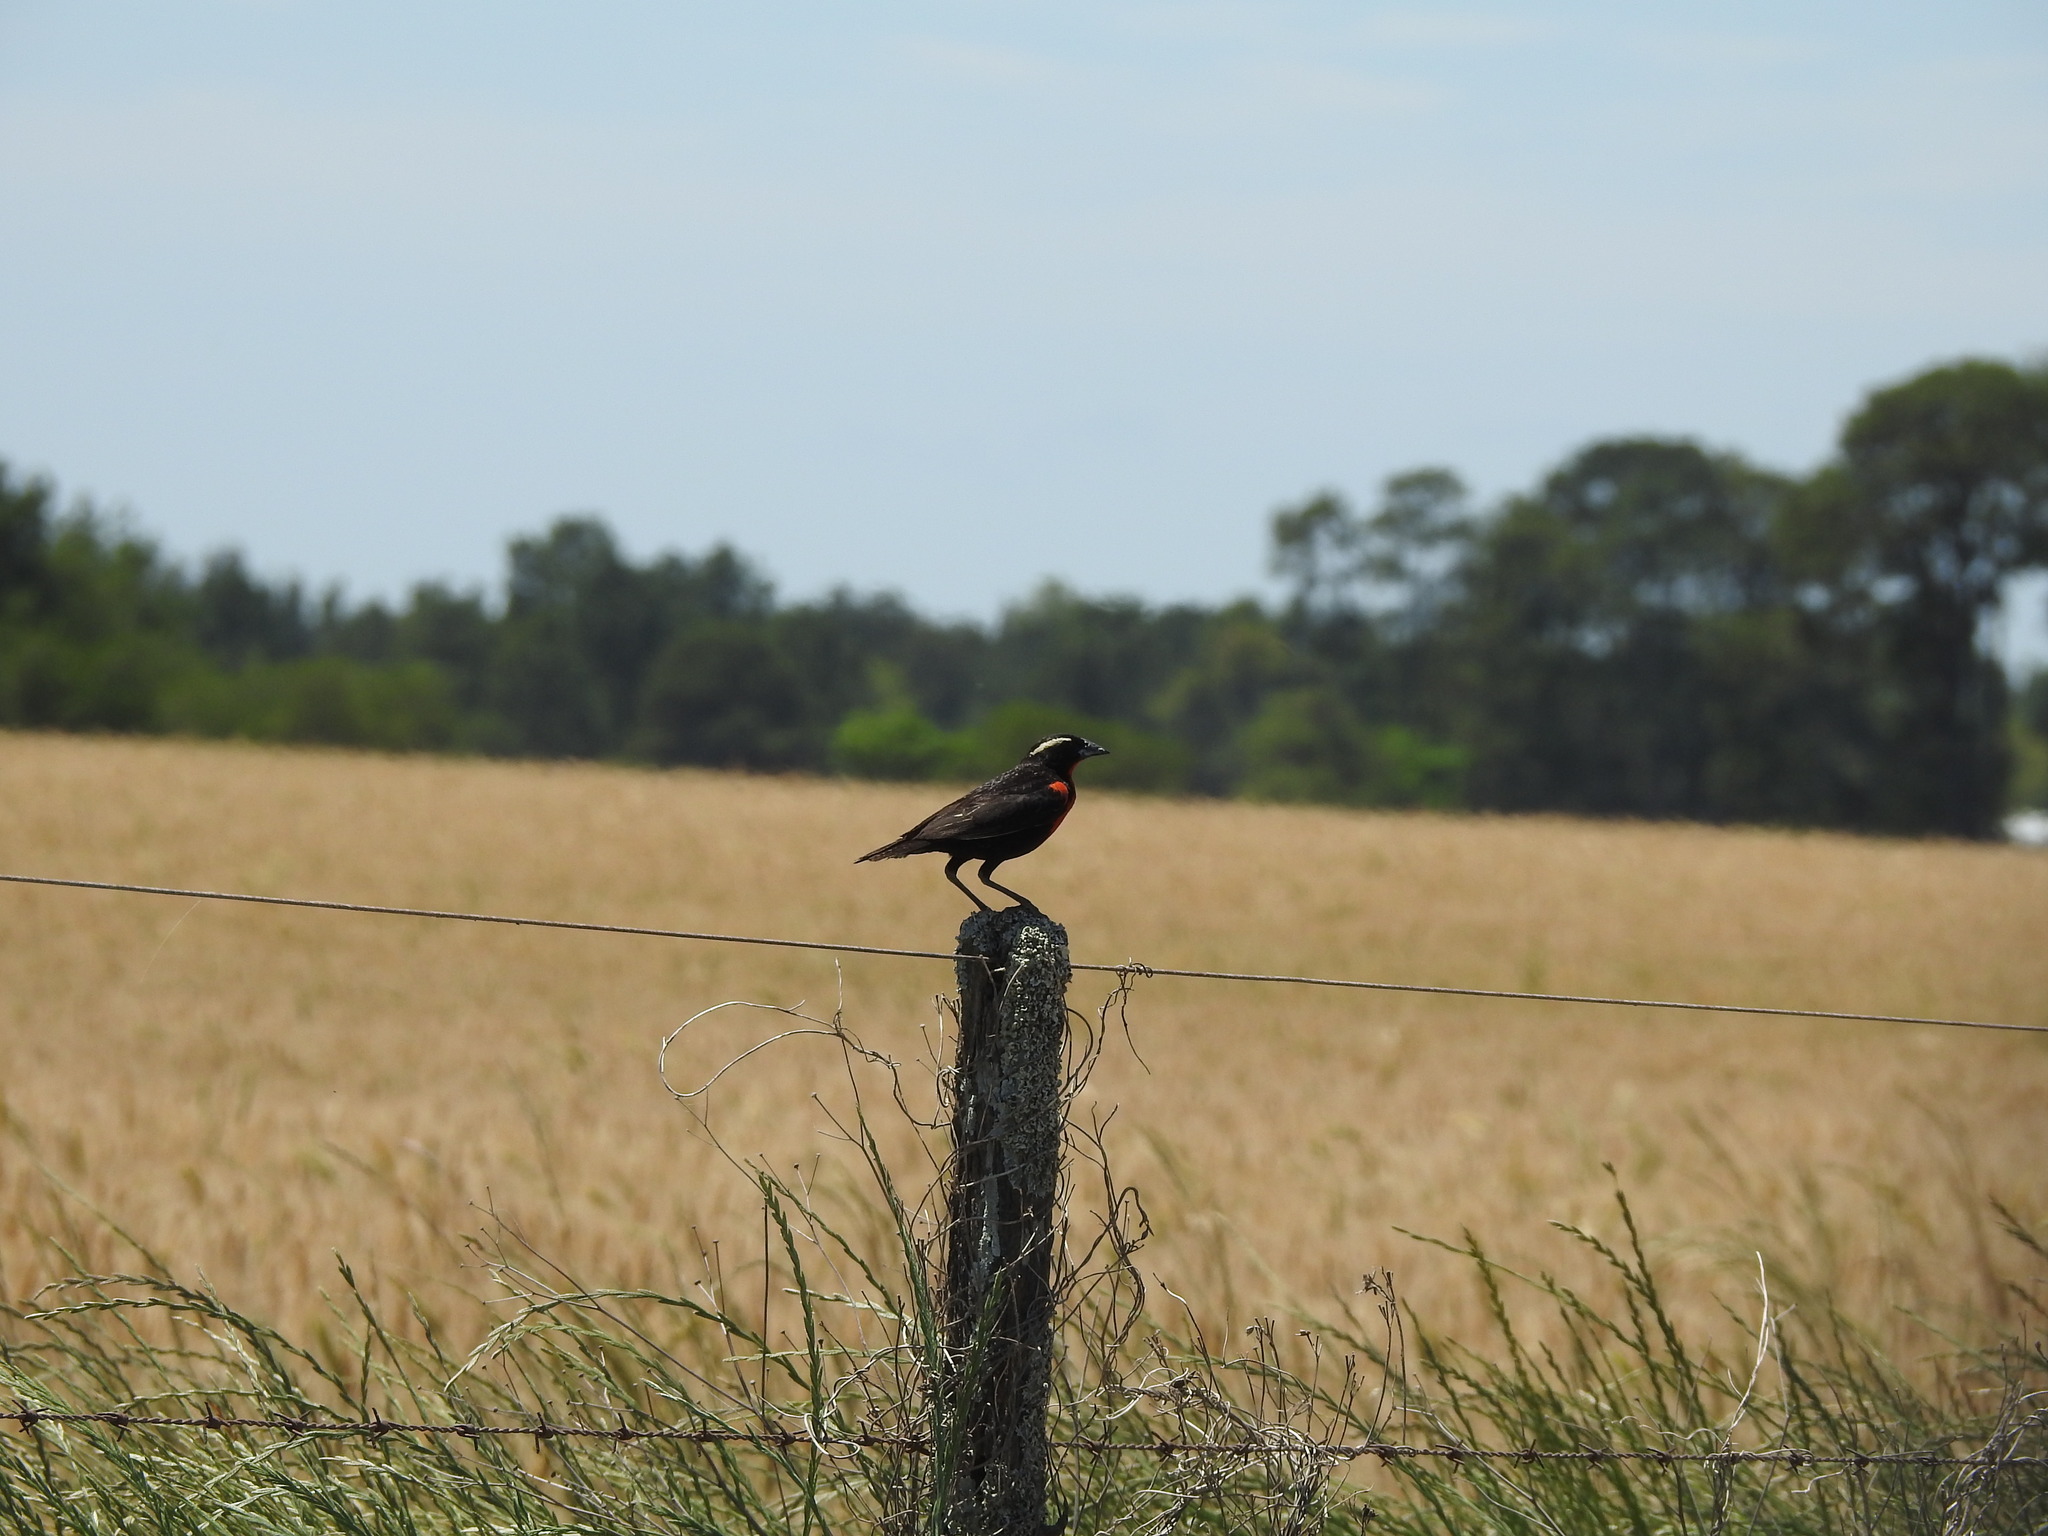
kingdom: Animalia
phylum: Chordata
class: Aves
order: Passeriformes
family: Icteridae
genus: Sturnella
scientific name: Sturnella superciliaris
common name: White-browed blackbird
